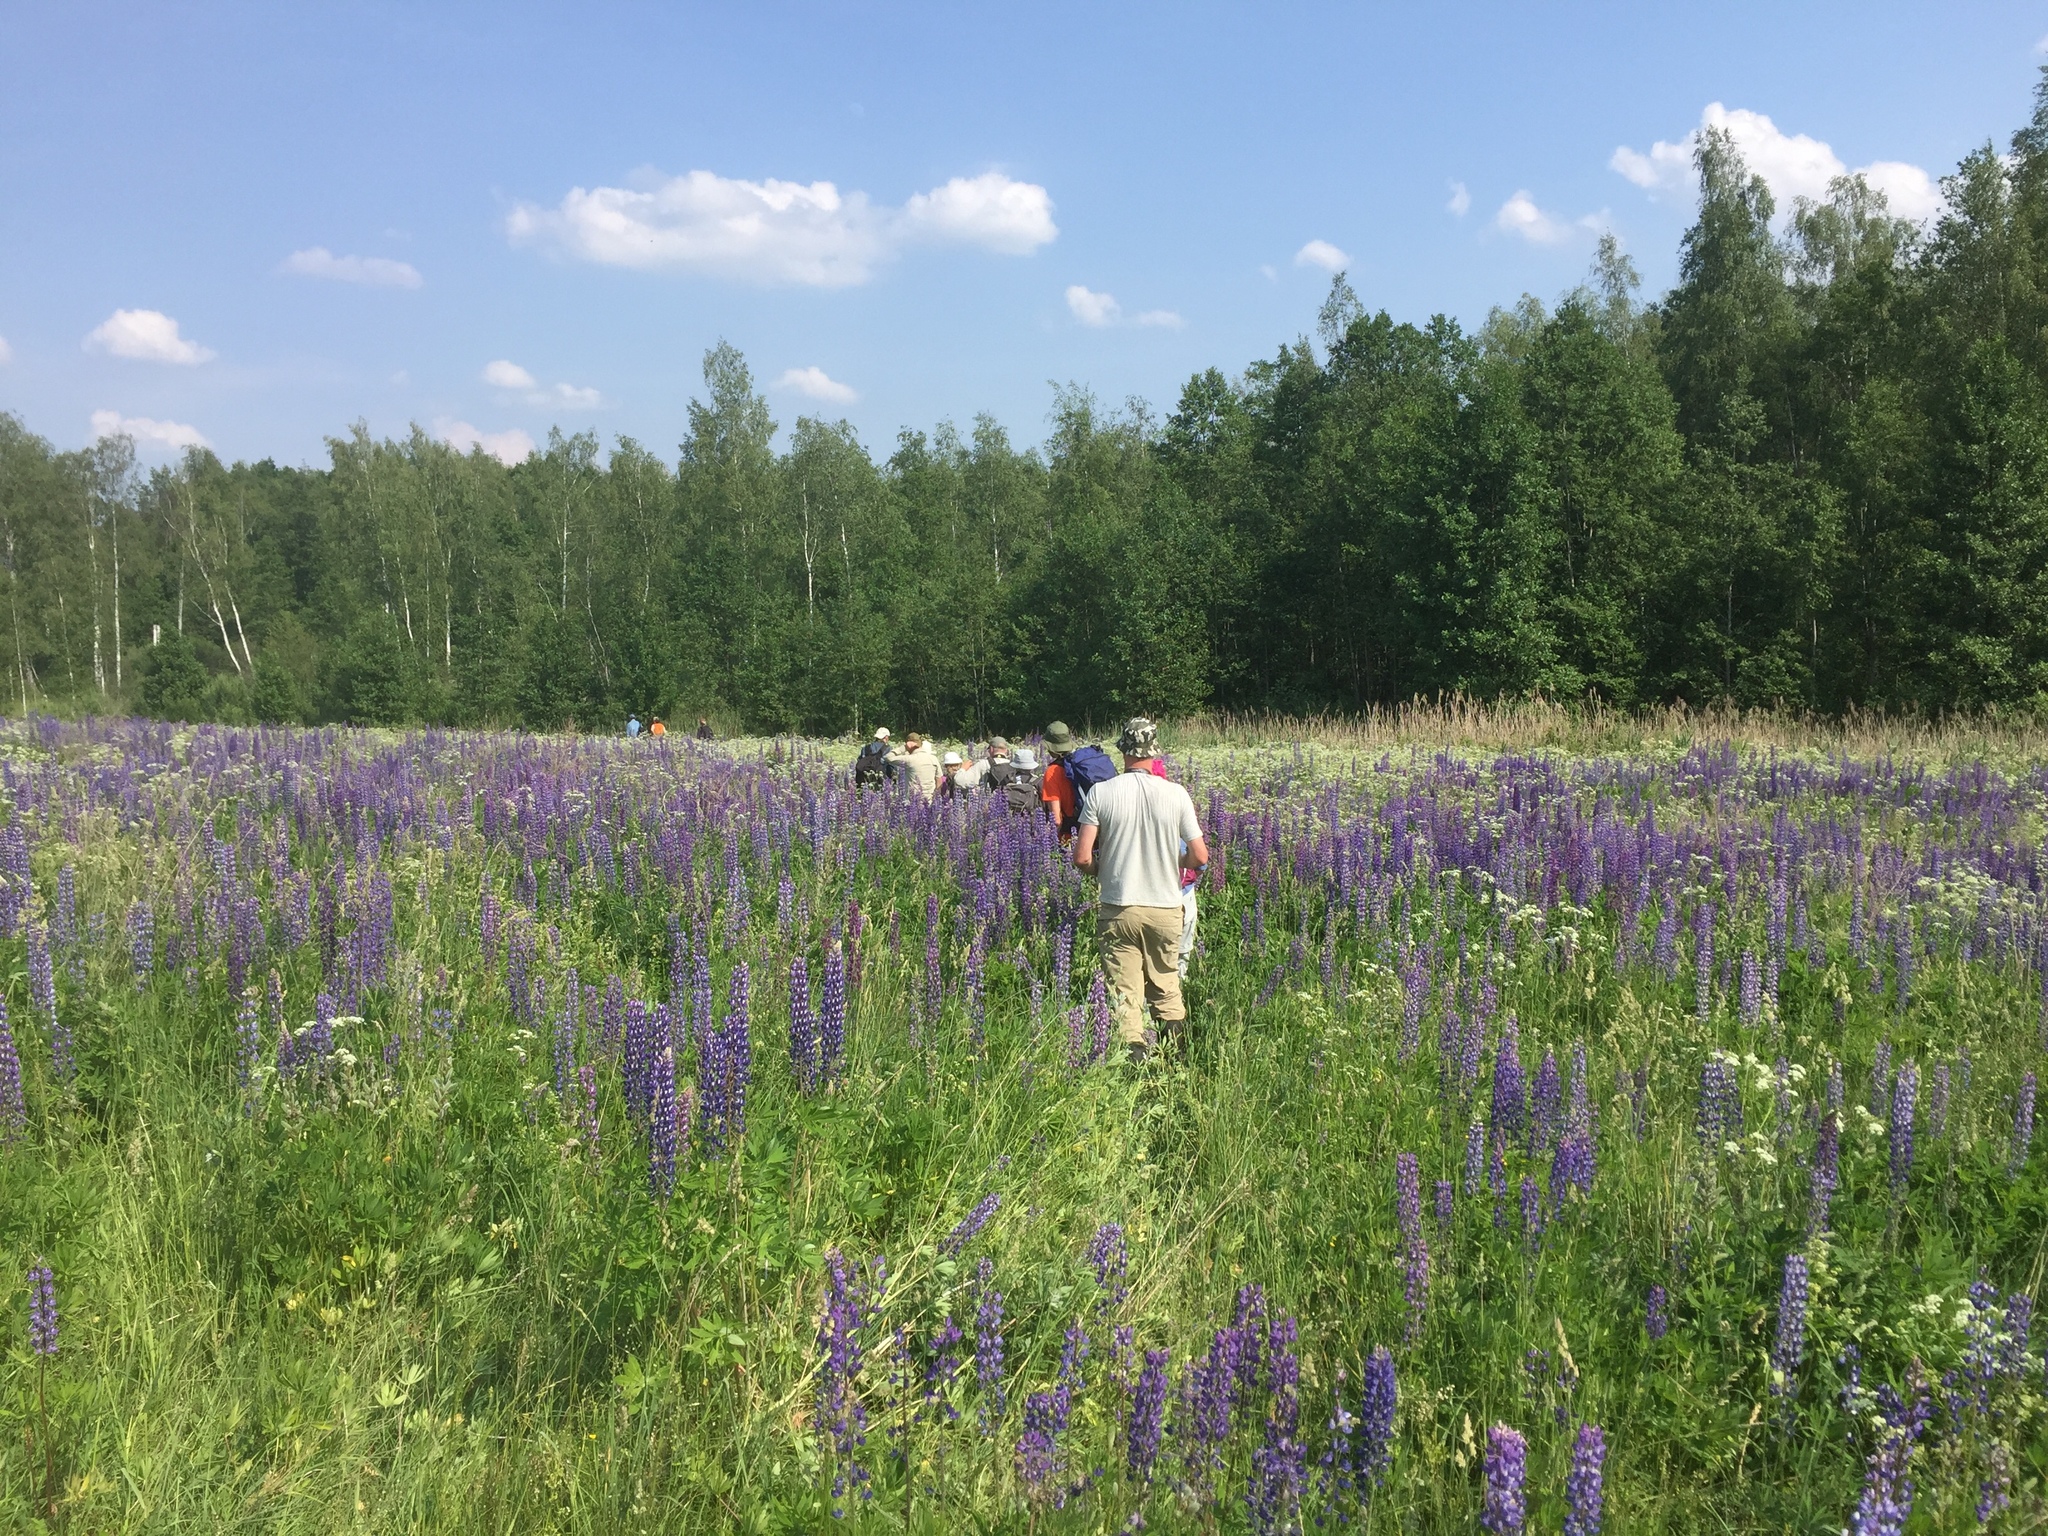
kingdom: Plantae
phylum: Tracheophyta
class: Magnoliopsida
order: Fabales
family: Fabaceae
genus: Lupinus
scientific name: Lupinus polyphyllus
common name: Garden lupin
